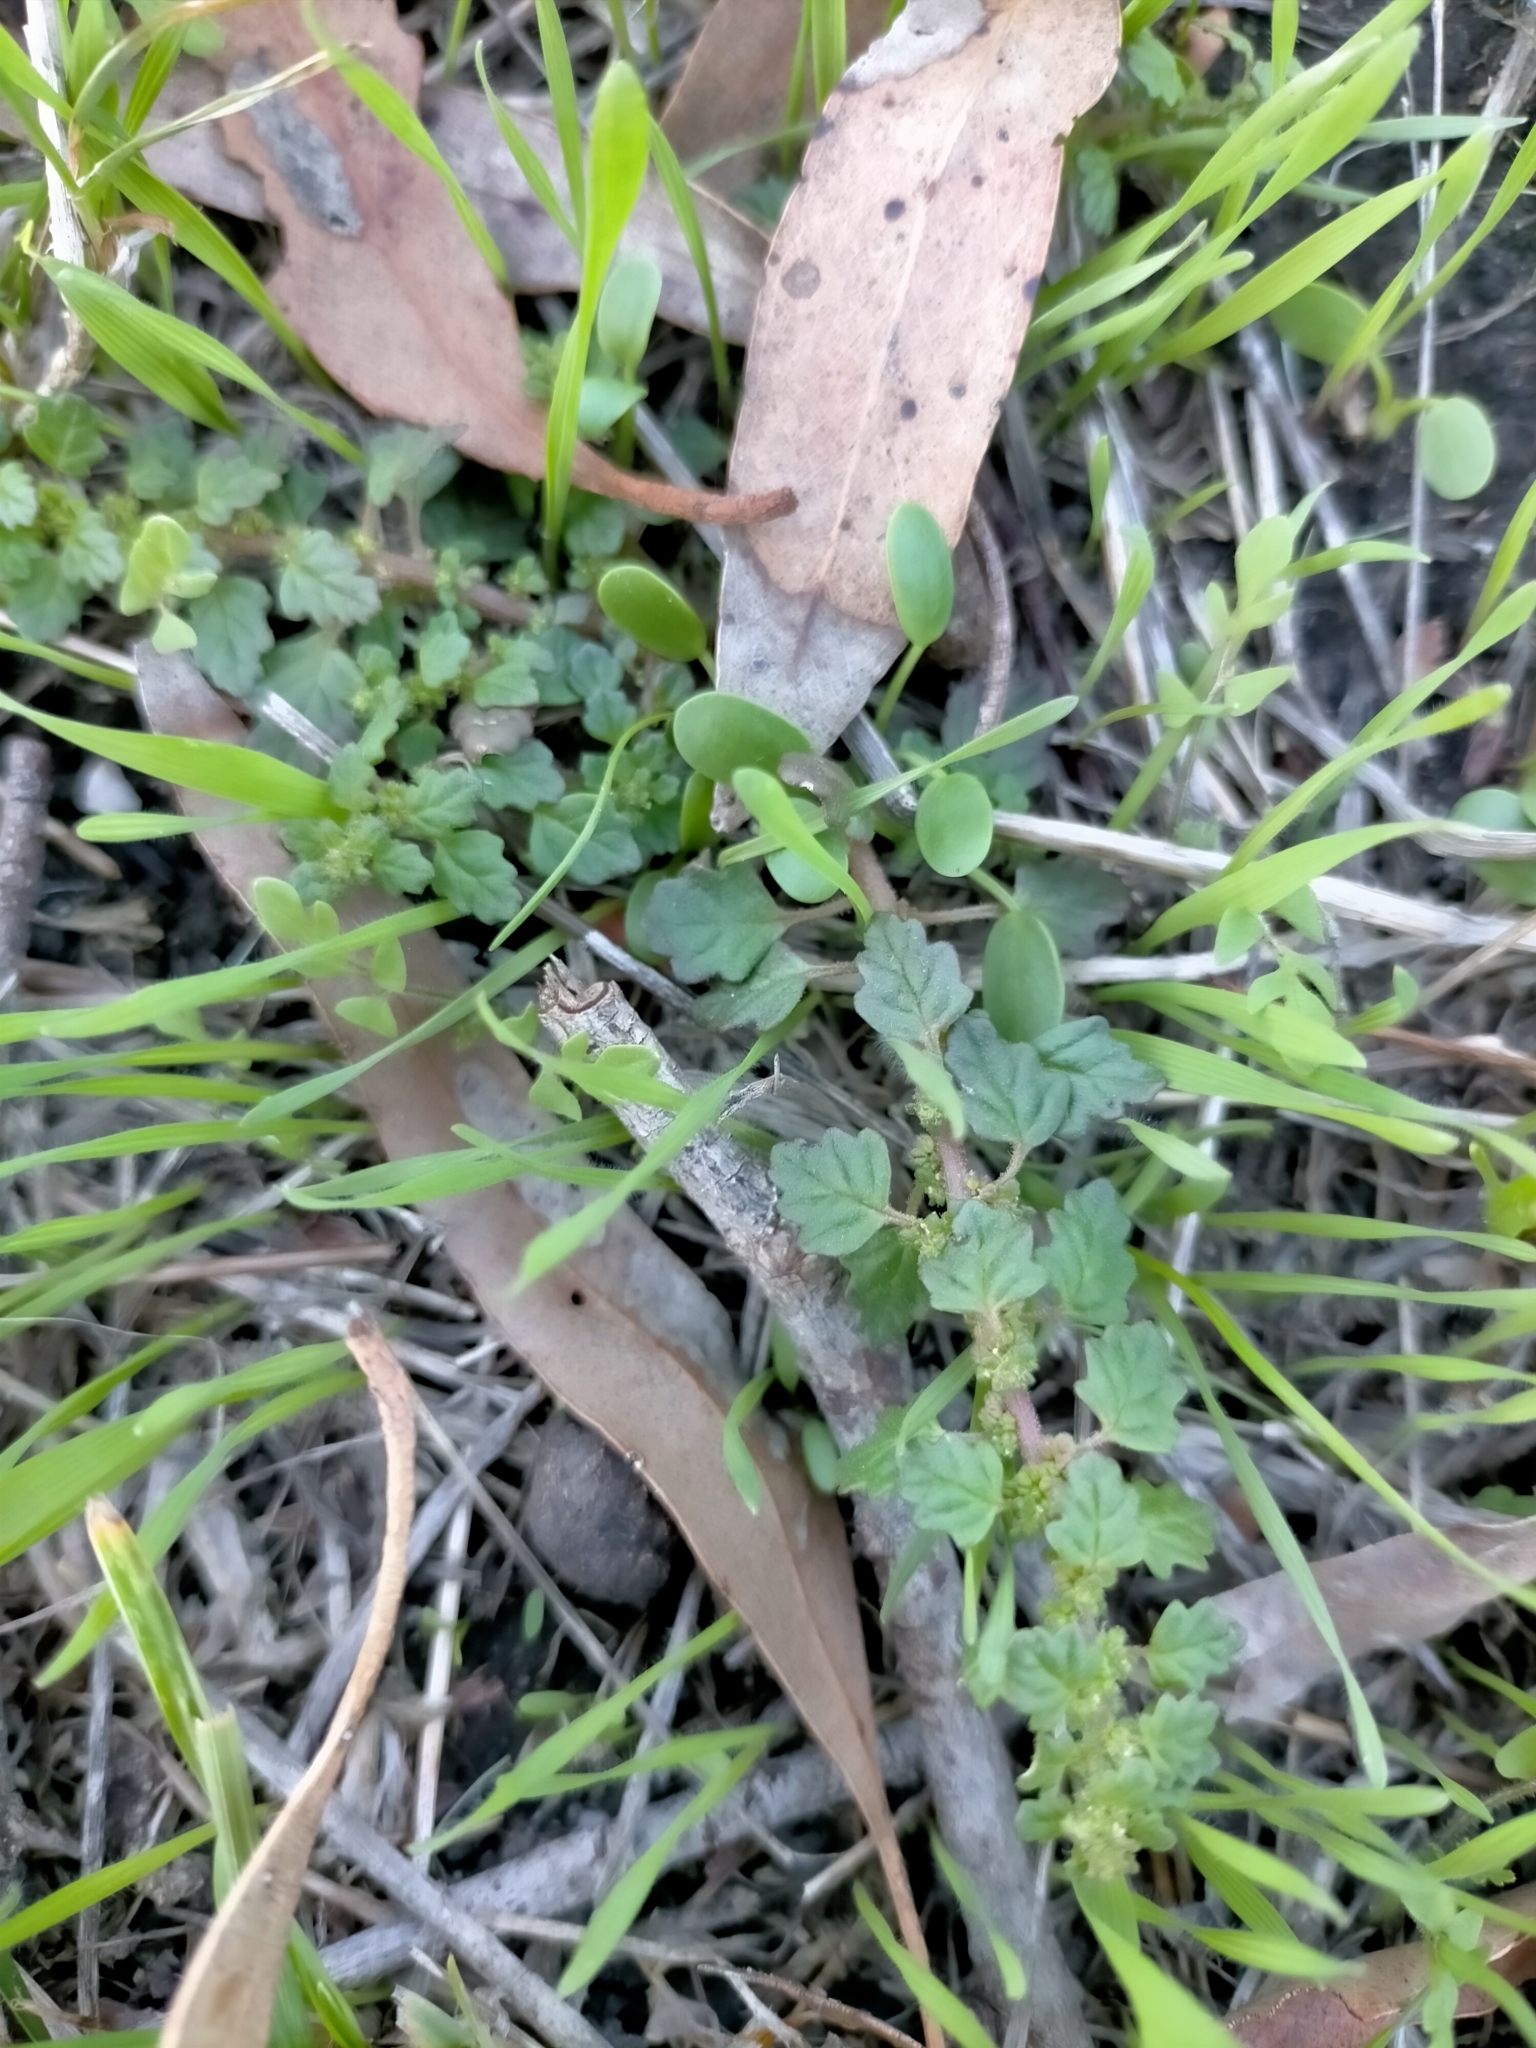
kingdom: Plantae
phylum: Tracheophyta
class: Magnoliopsida
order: Caryophyllales
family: Amaranthaceae
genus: Dysphania
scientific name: Dysphania pumilio
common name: Clammy goosefoot
